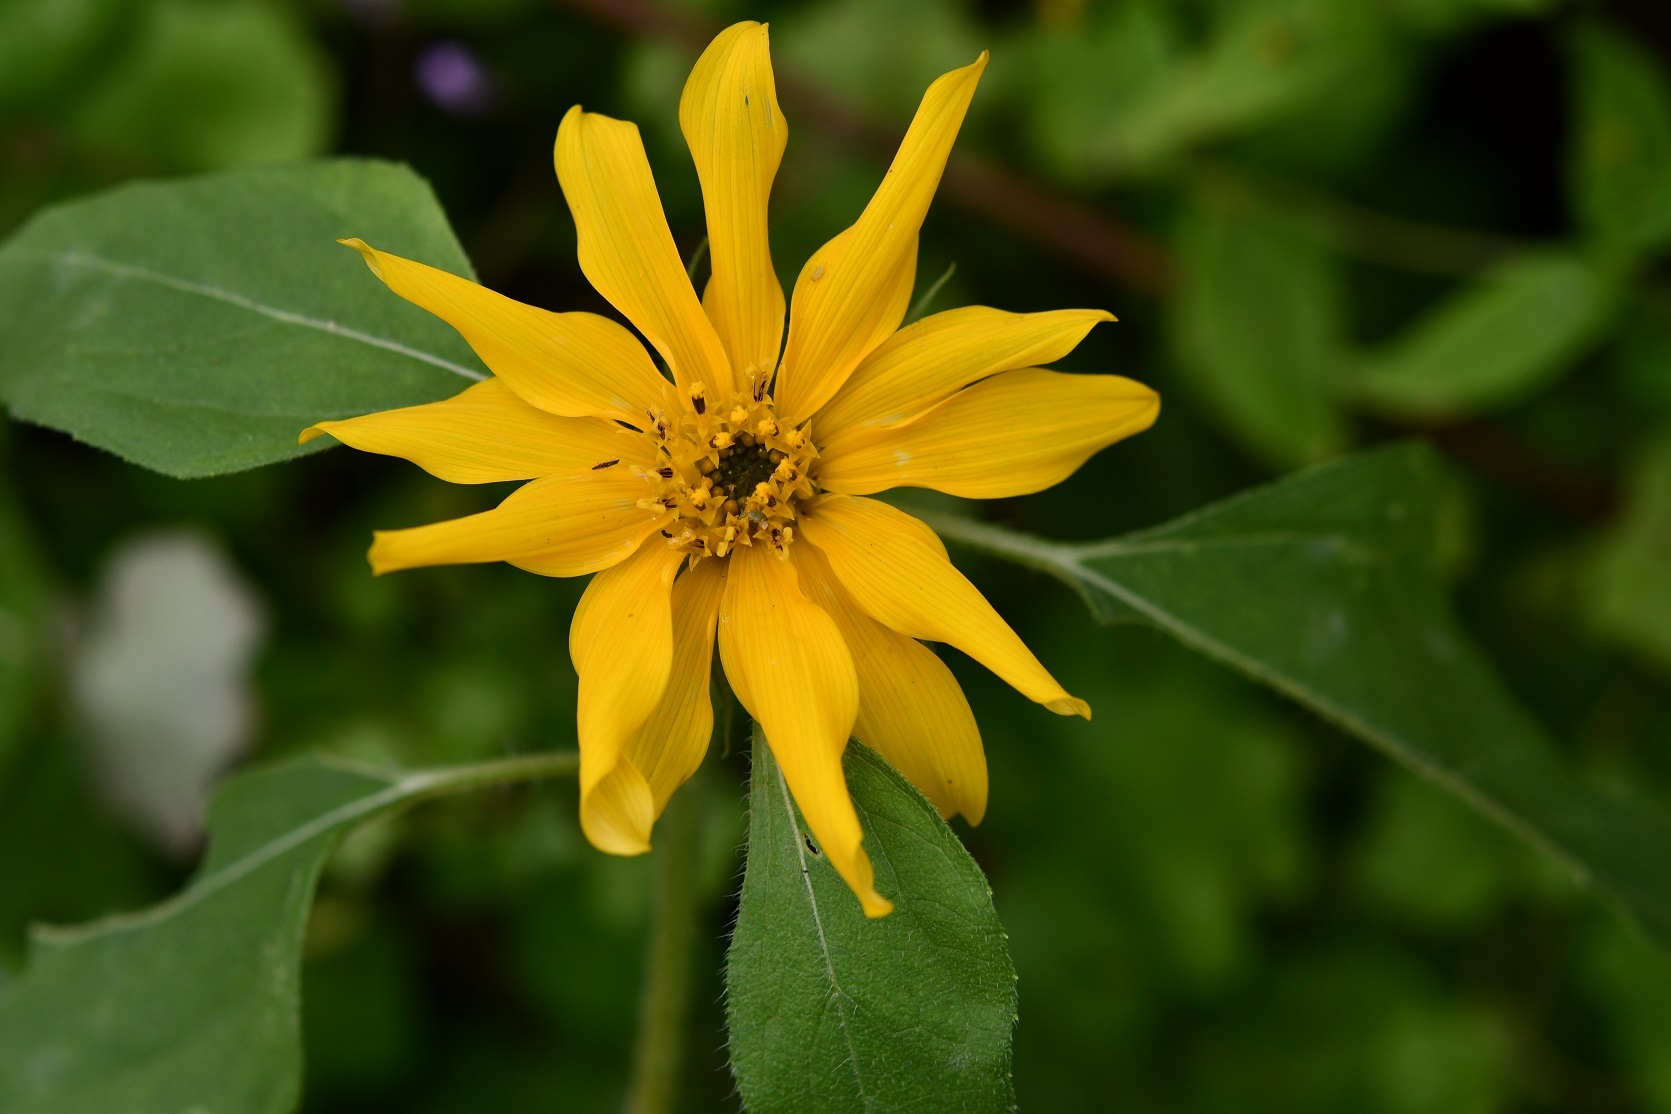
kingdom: Plantae
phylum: Tracheophyta
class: Magnoliopsida
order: Asterales
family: Asteraceae
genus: Helianthus
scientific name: Helianthus annuus
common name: Sunflower
